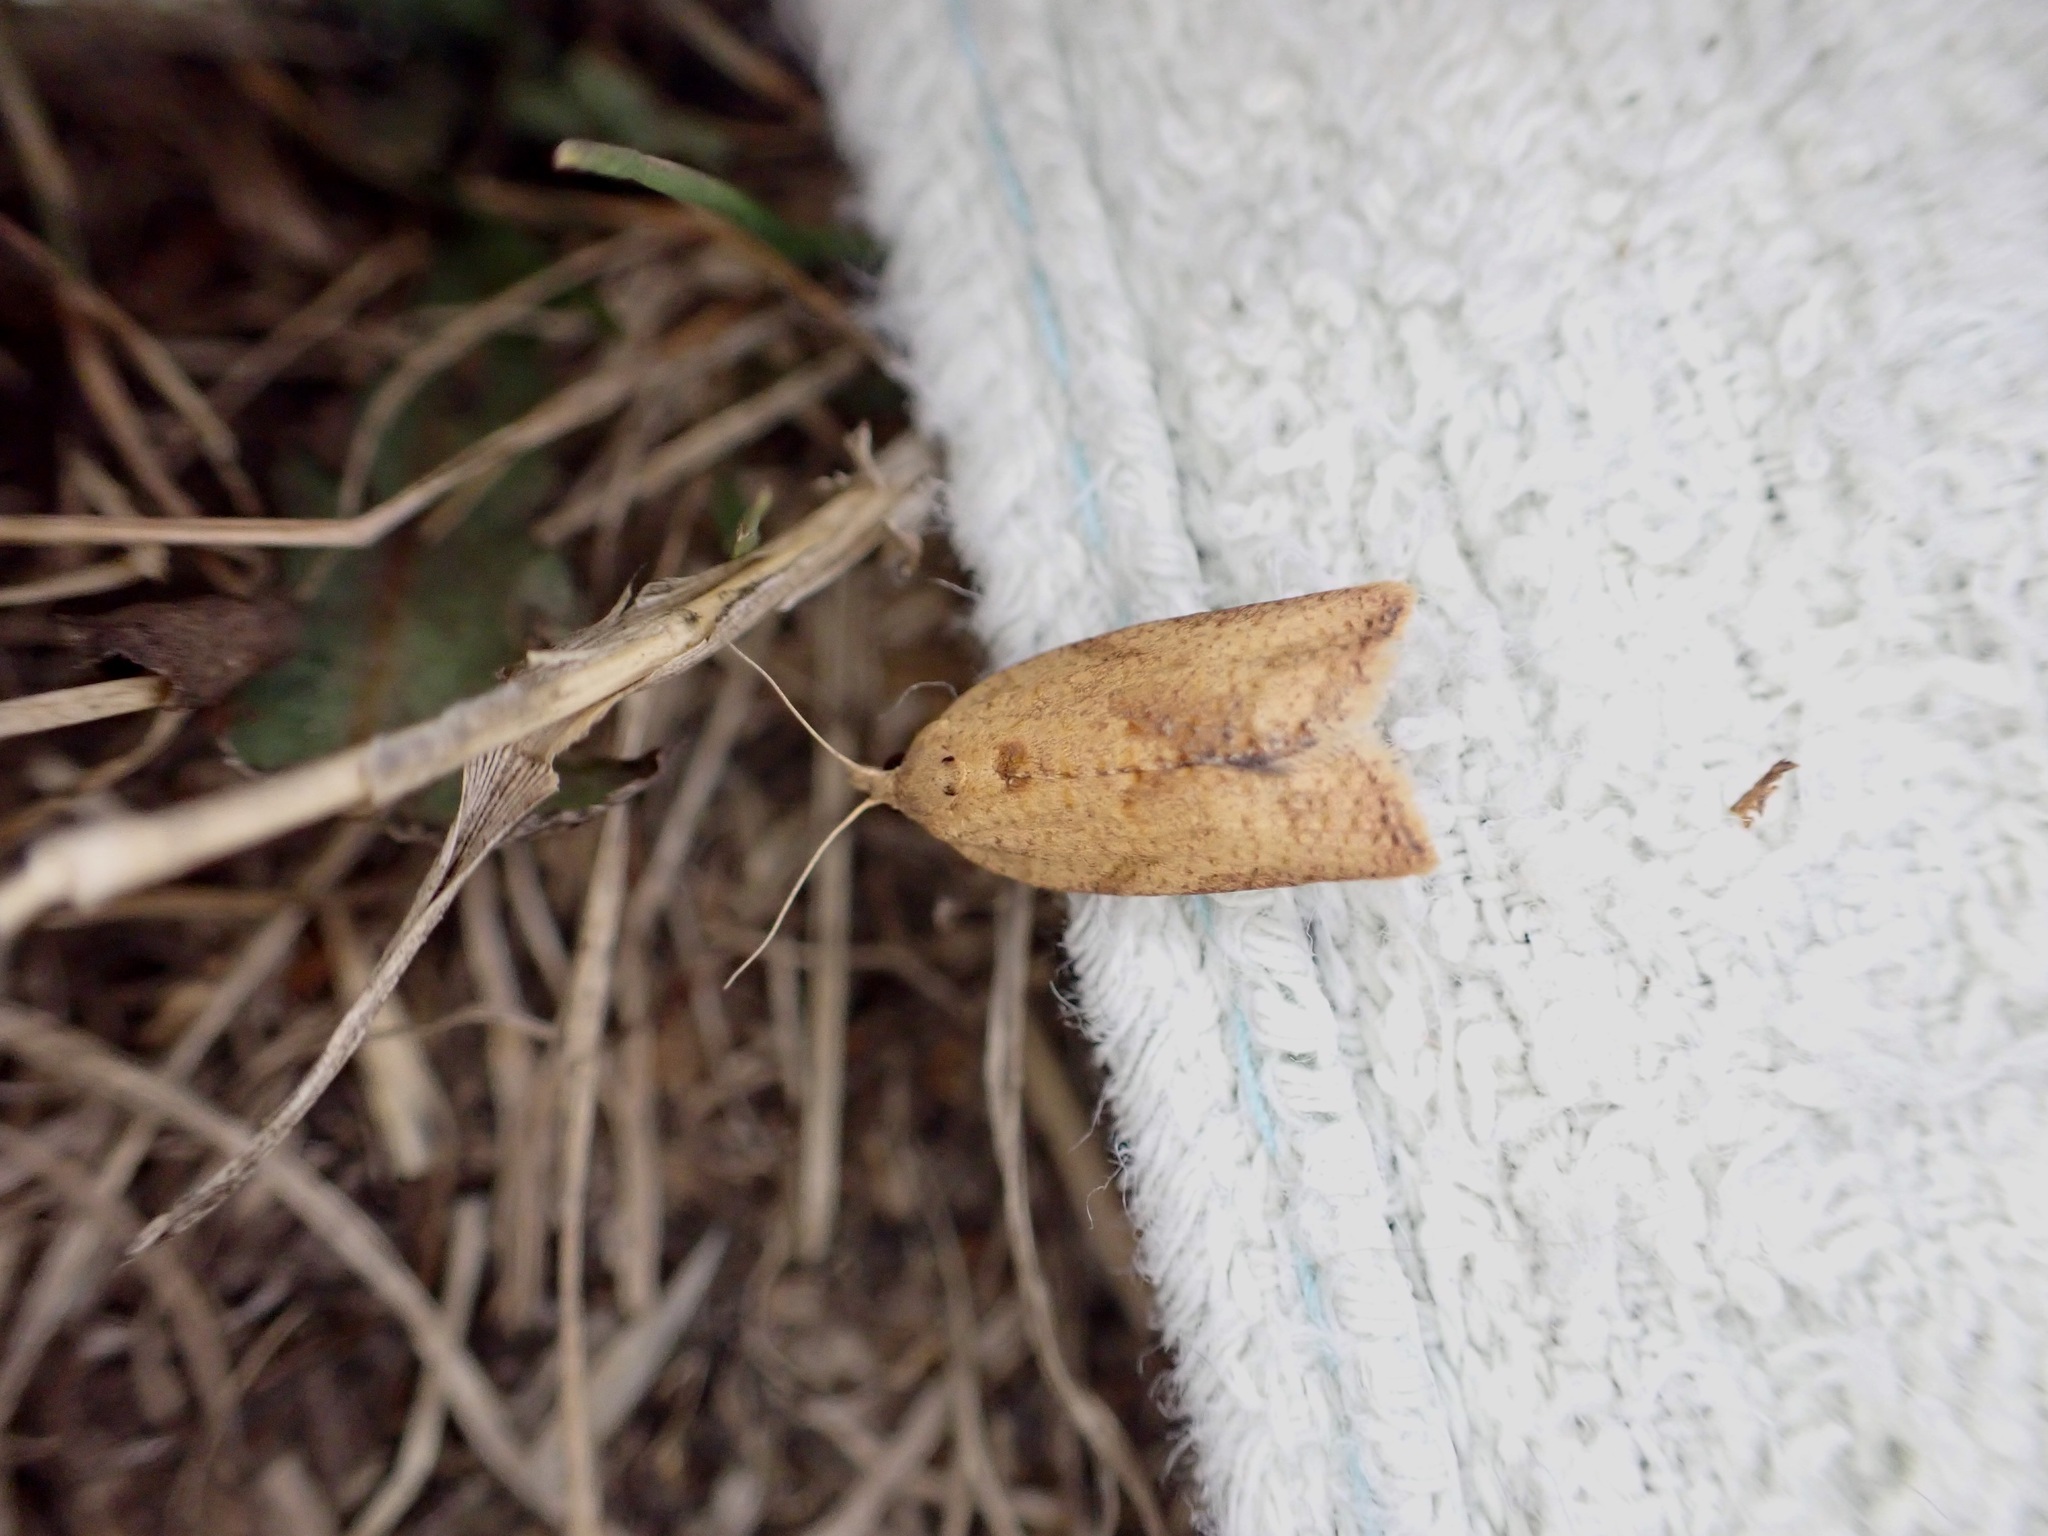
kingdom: Animalia
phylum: Arthropoda
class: Insecta
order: Lepidoptera
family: Tortricidae
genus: Epiphyas
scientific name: Epiphyas postvittana
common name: Light brown apple moth
